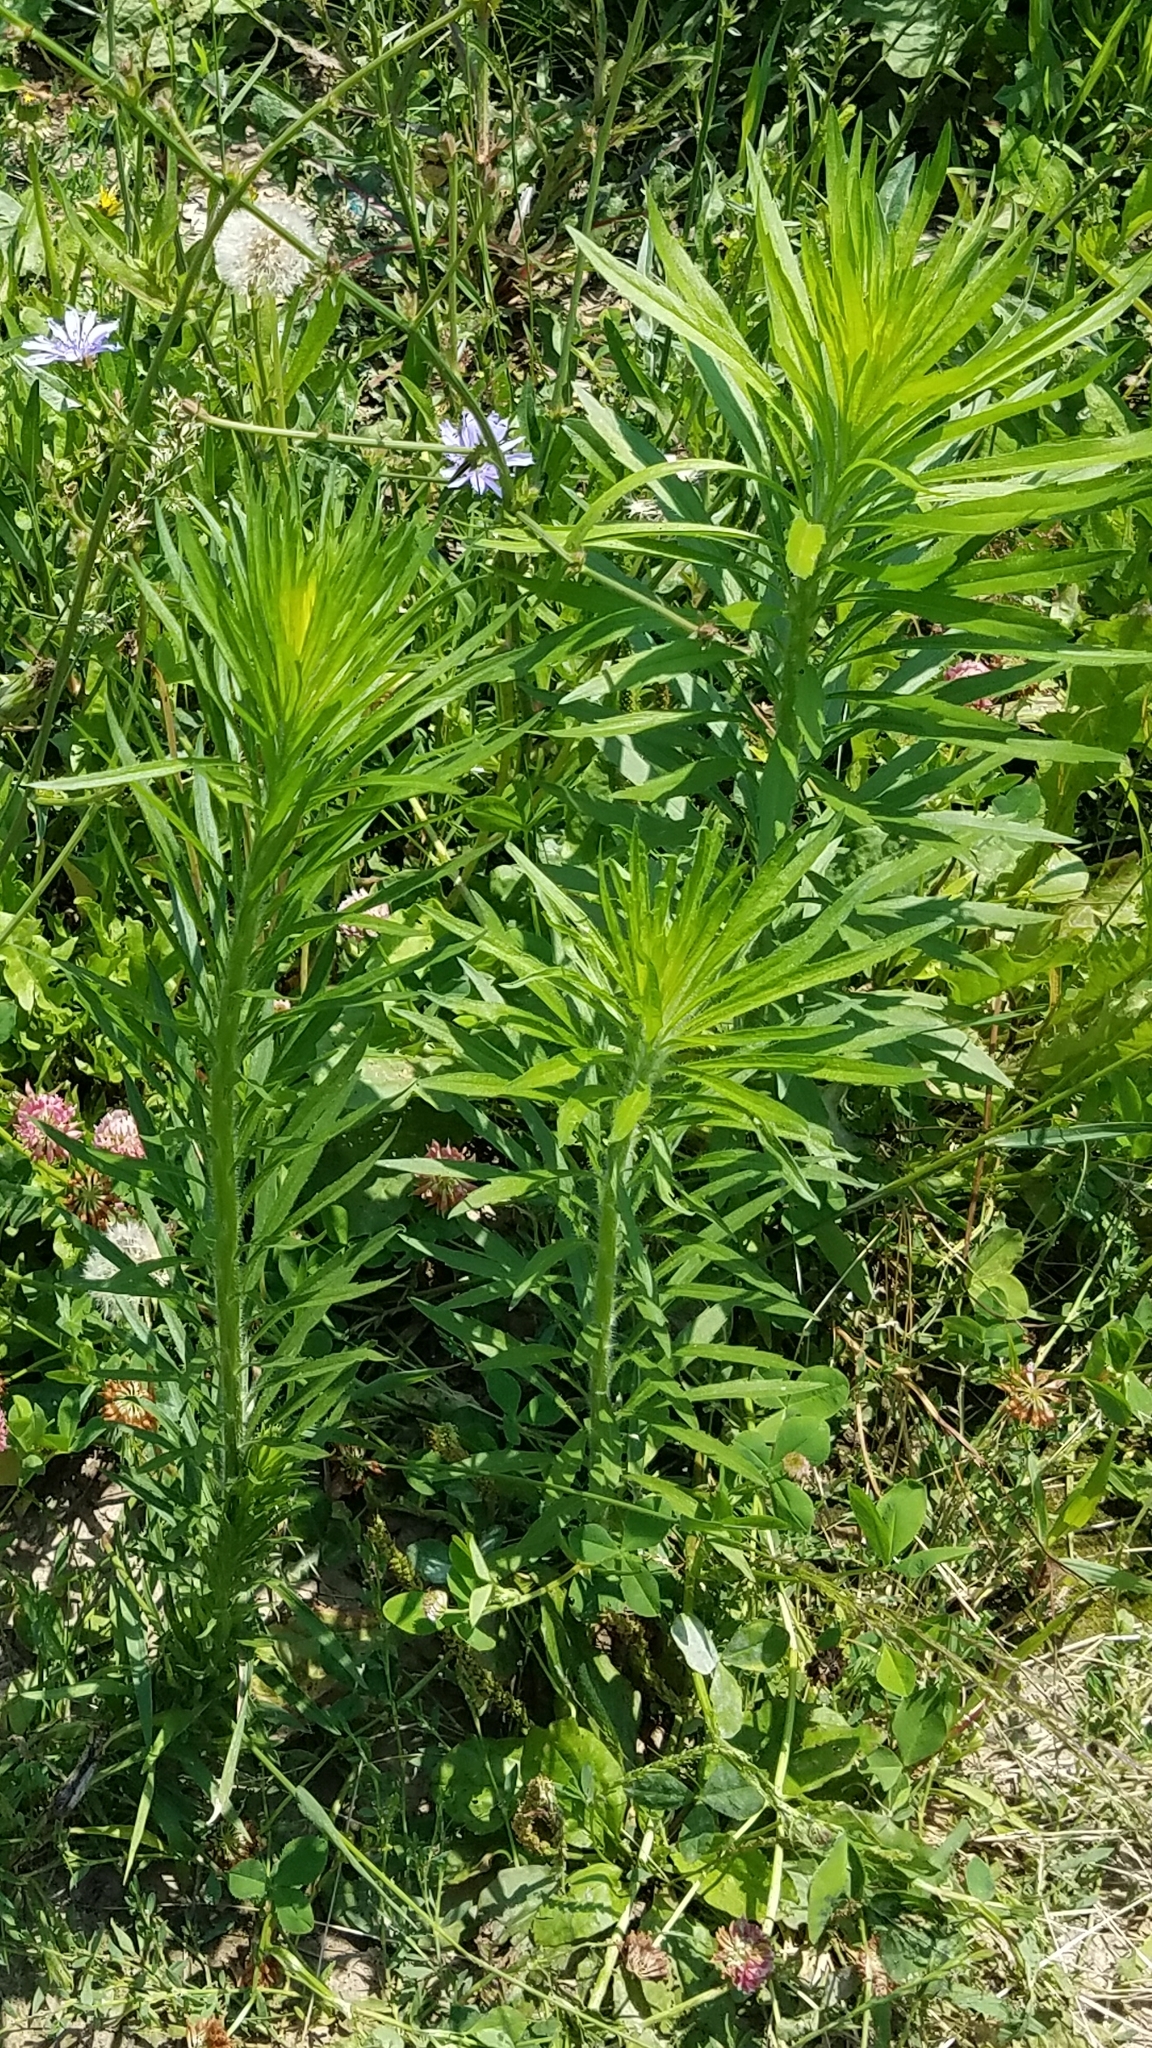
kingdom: Plantae
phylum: Tracheophyta
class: Magnoliopsida
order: Asterales
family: Asteraceae
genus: Erigeron
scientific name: Erigeron canadensis
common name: Canadian fleabane
